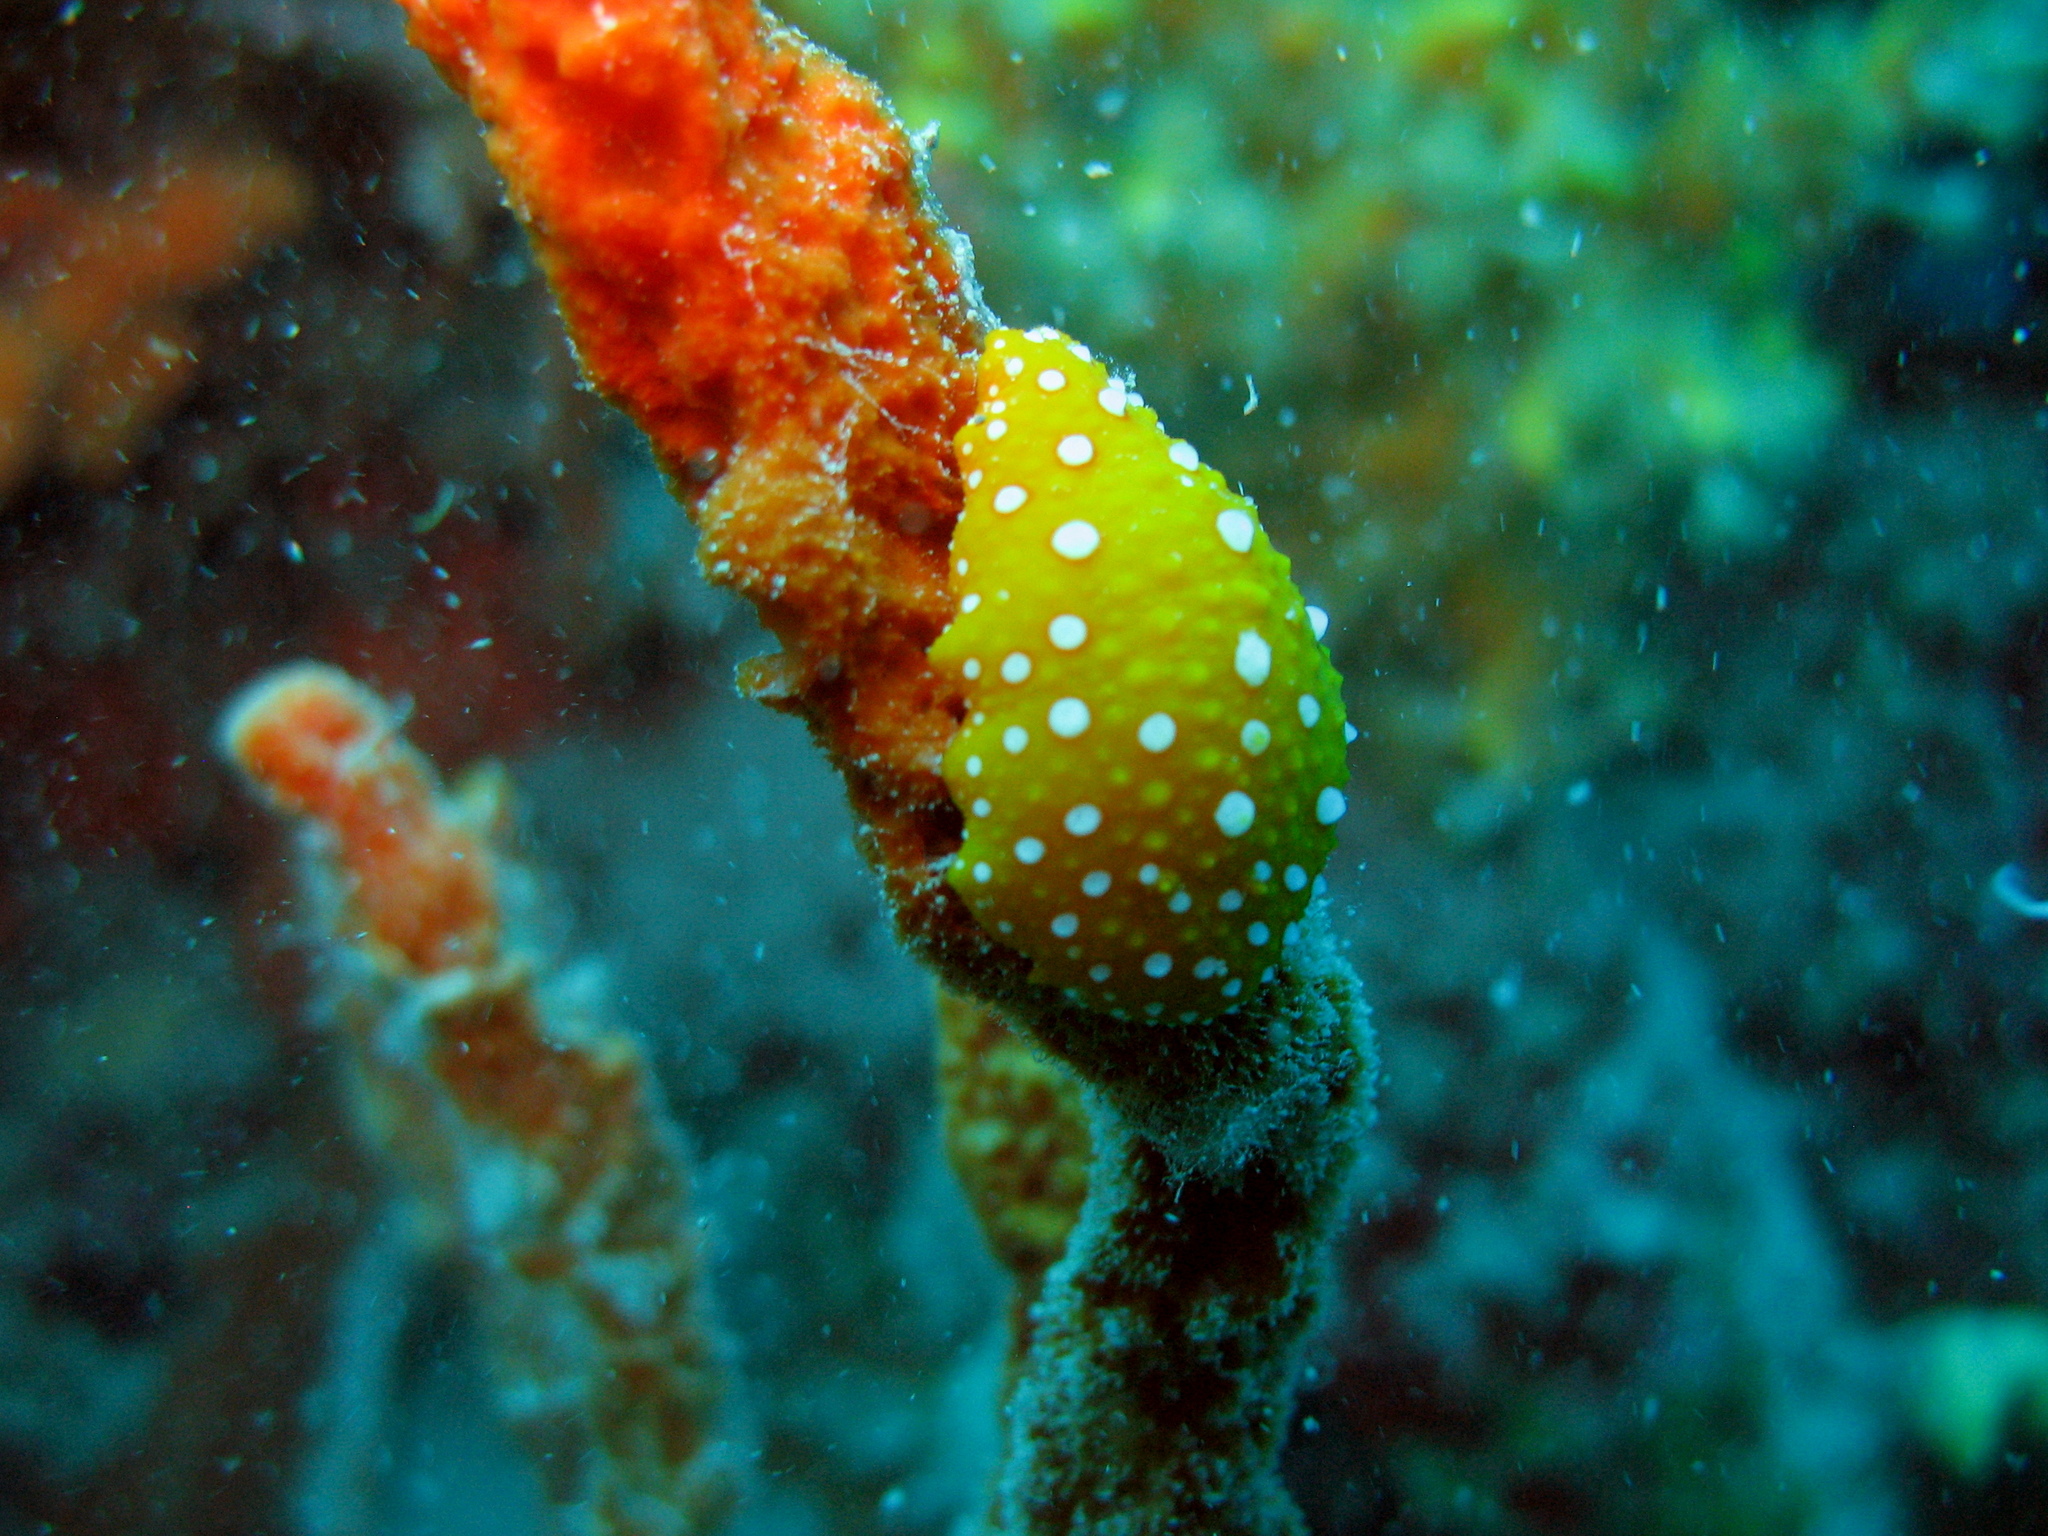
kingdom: Animalia
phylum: Mollusca
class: Gastropoda
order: Nudibranchia
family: Phyllidiidae
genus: Phyllidia
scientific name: Phyllidia flava
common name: White-spotted yellow nudibranch
